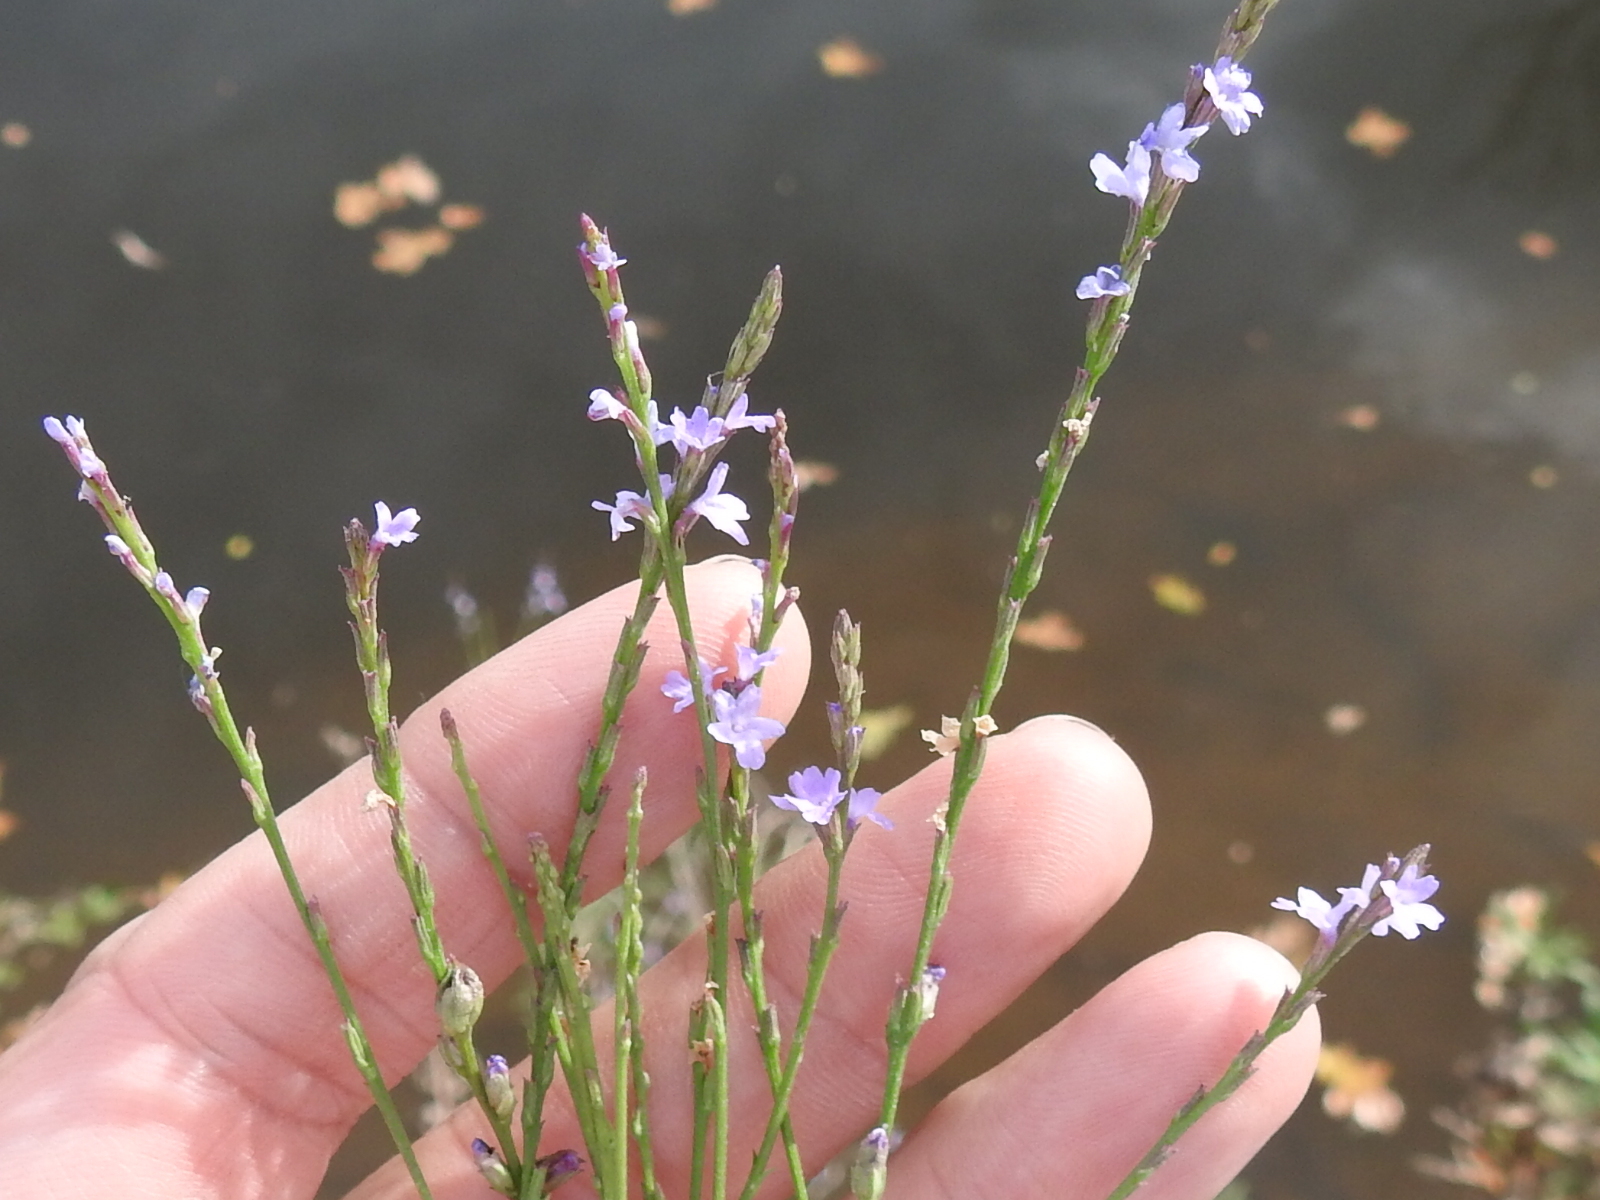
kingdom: Plantae
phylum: Tracheophyta
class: Magnoliopsida
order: Lamiales
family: Verbenaceae
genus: Verbena
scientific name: Verbena halei
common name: Texas vervain
